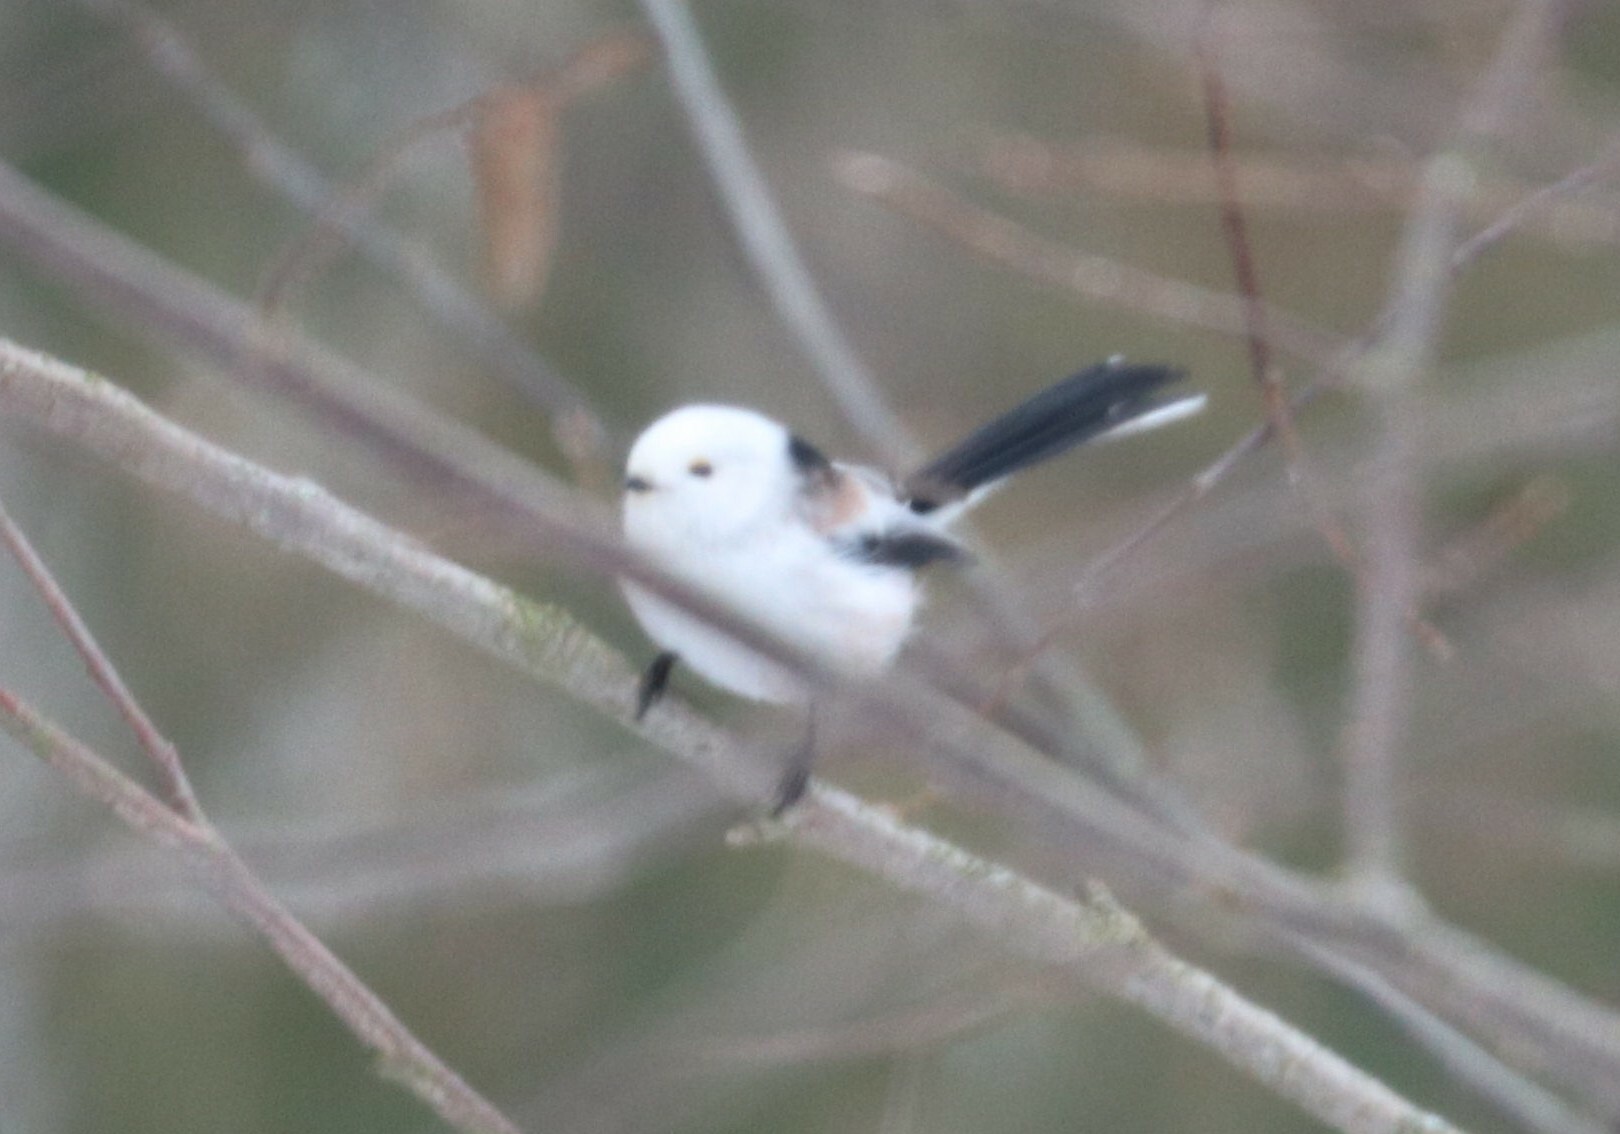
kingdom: Animalia
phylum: Chordata
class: Aves
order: Passeriformes
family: Aegithalidae
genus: Aegithalos
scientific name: Aegithalos caudatus
